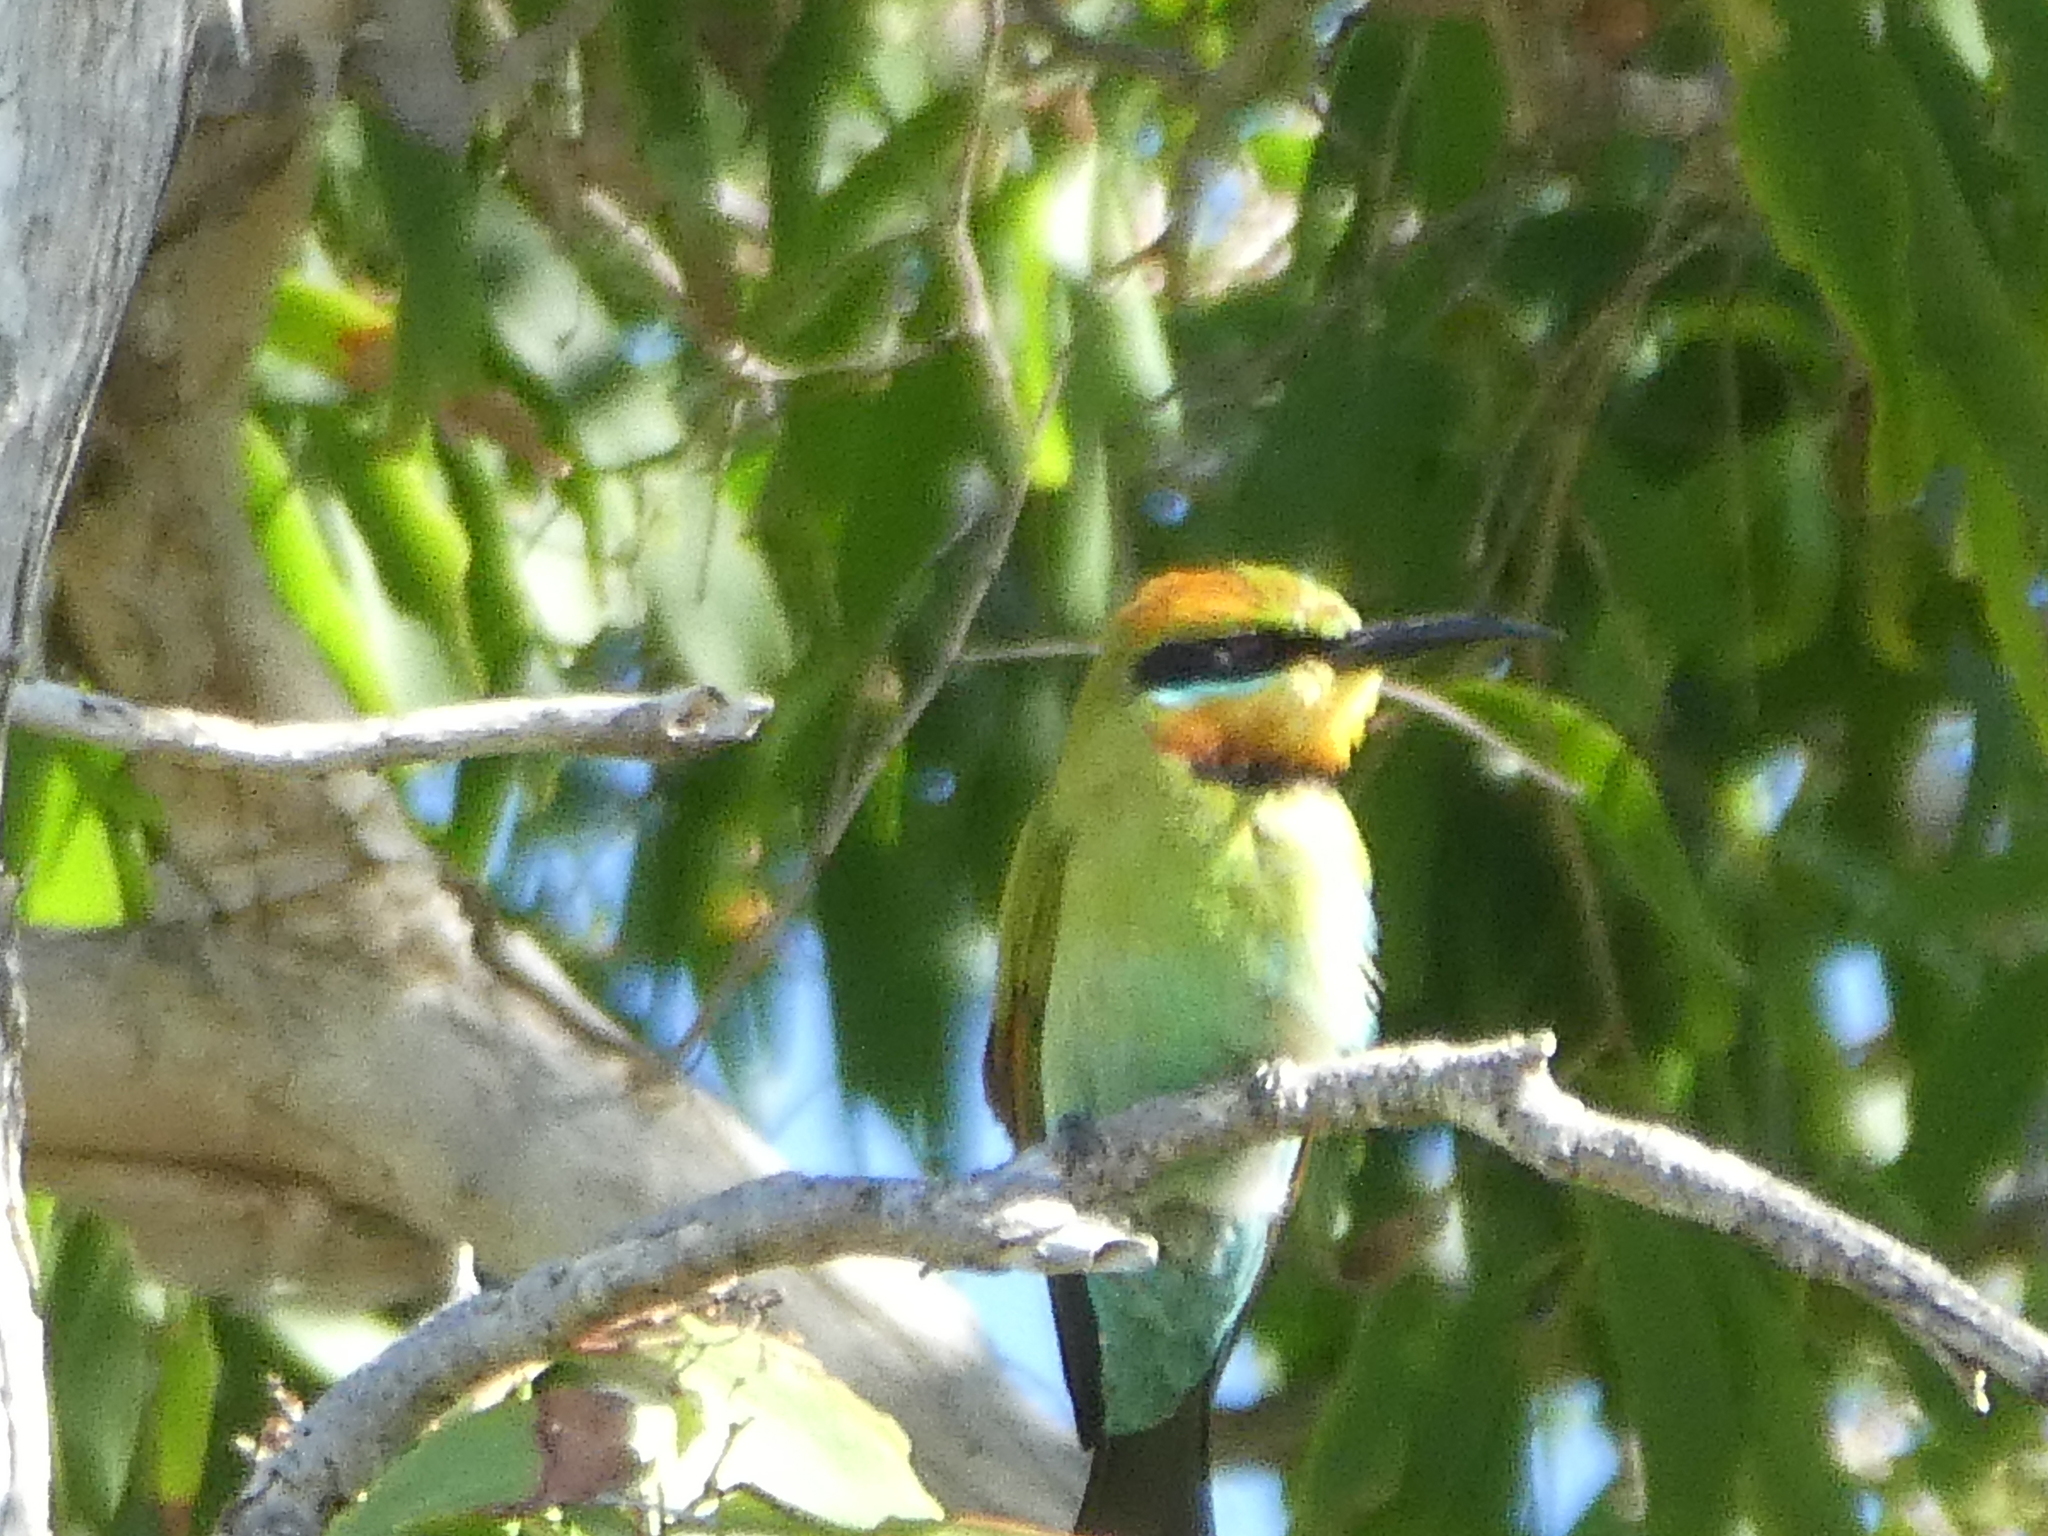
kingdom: Animalia
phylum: Chordata
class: Aves
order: Coraciiformes
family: Meropidae
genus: Merops
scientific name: Merops ornatus
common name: Rainbow bee-eater
